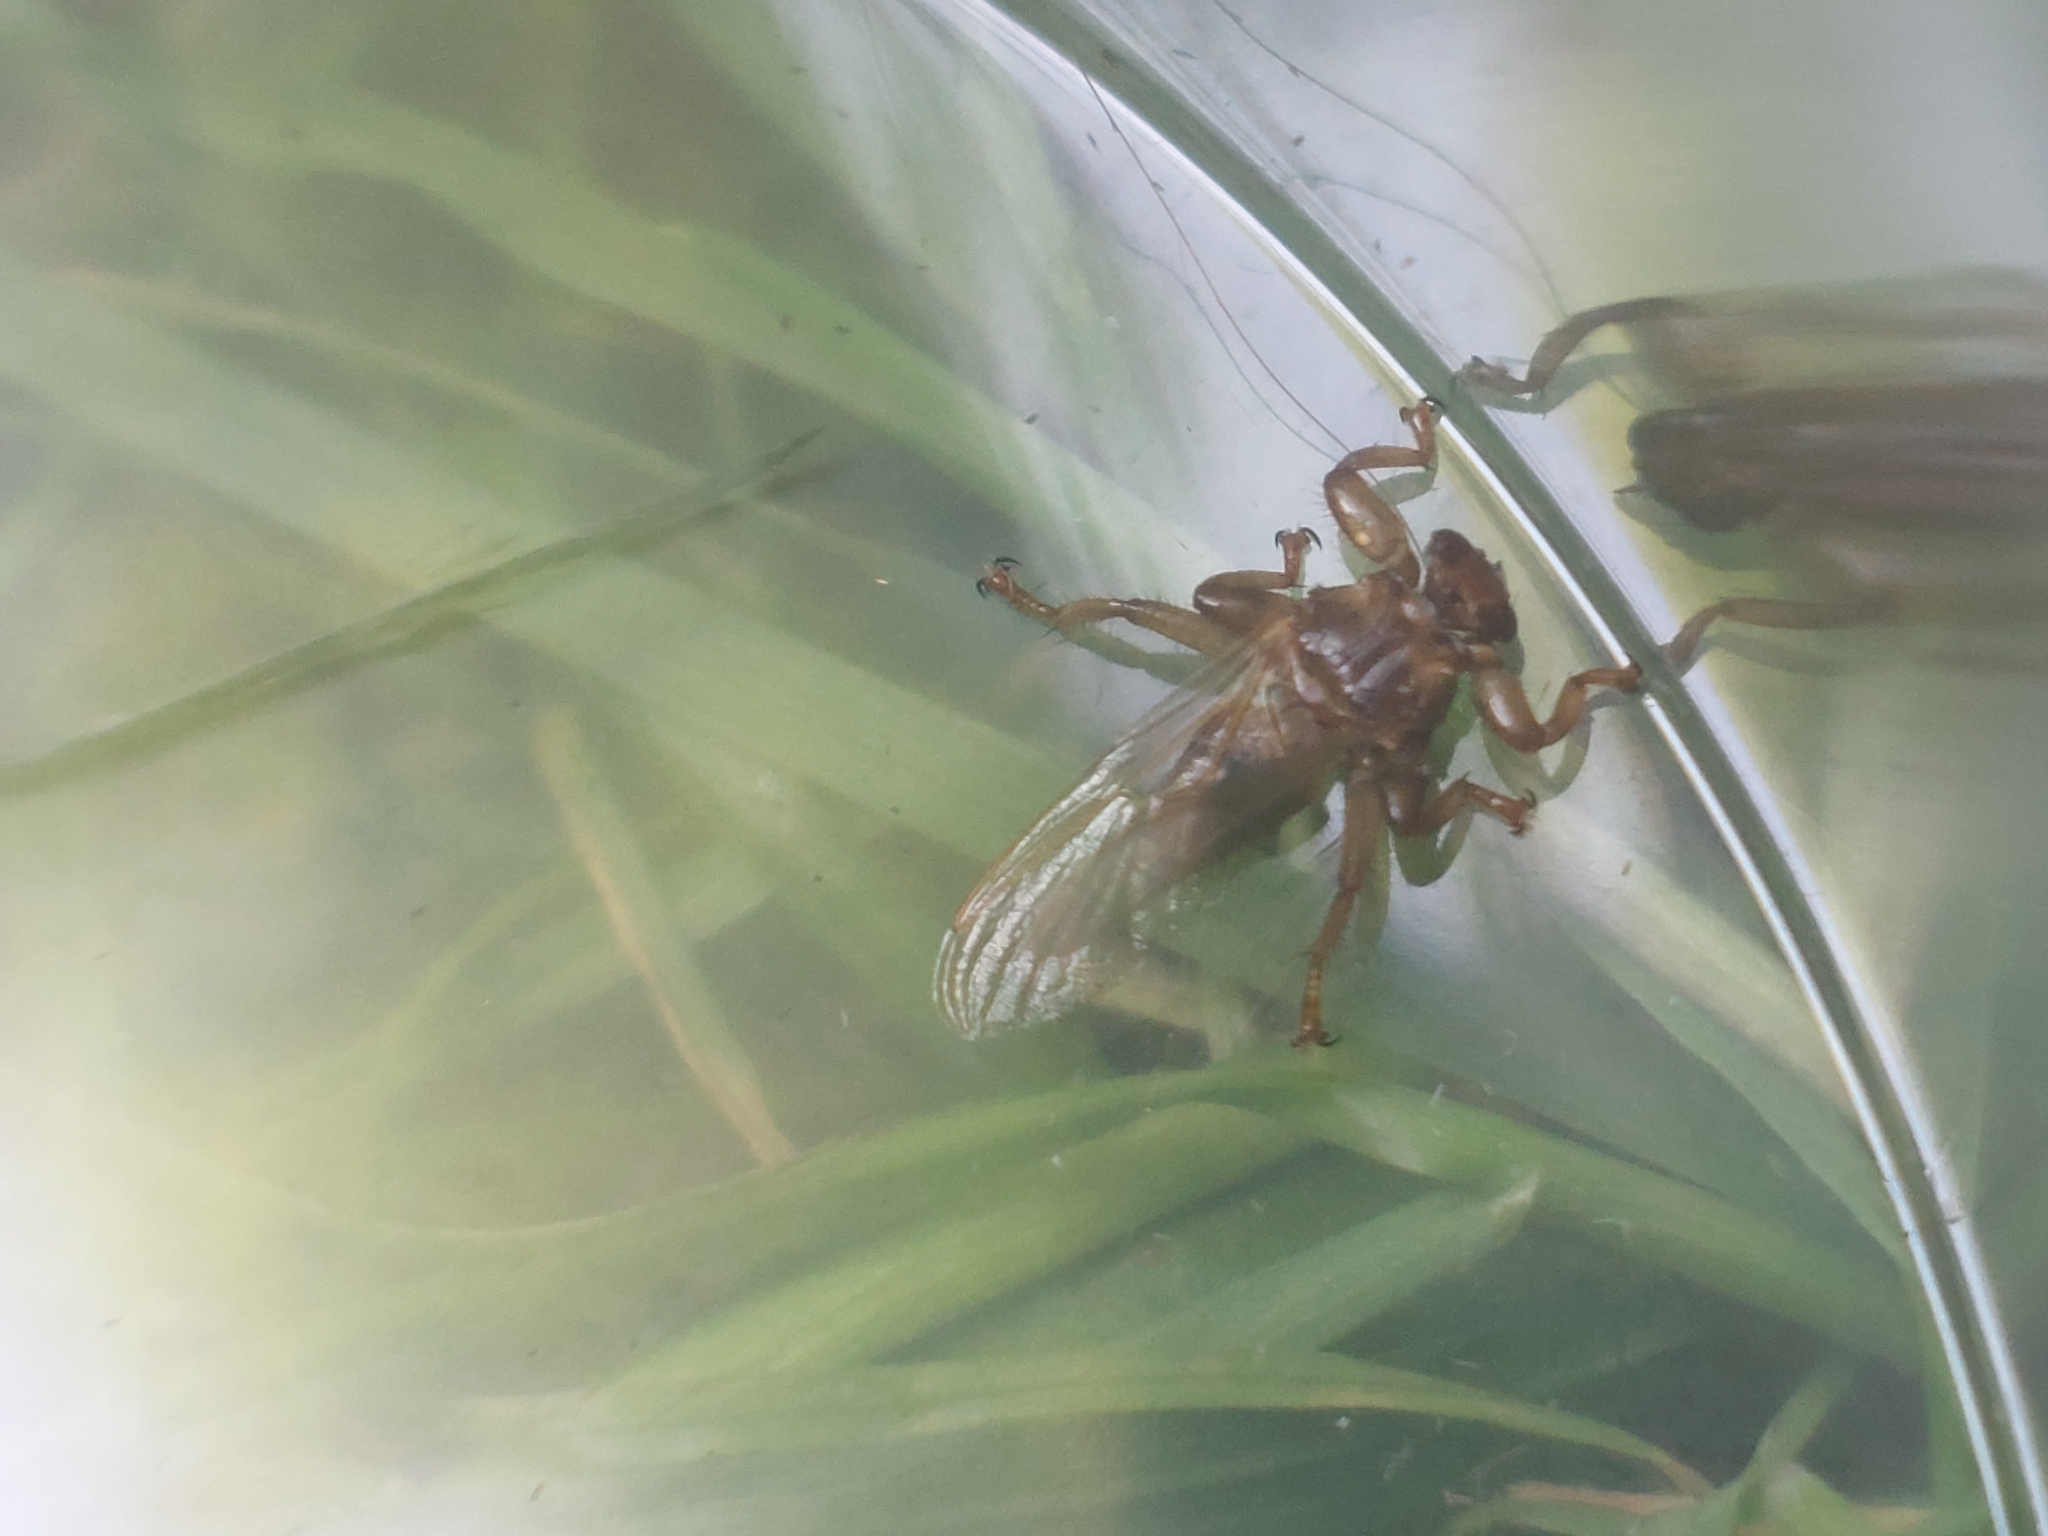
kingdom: Animalia
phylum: Arthropoda
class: Insecta
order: Diptera
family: Hippoboscidae
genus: Lipoptena
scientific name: Lipoptena cervi
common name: Deer ked
